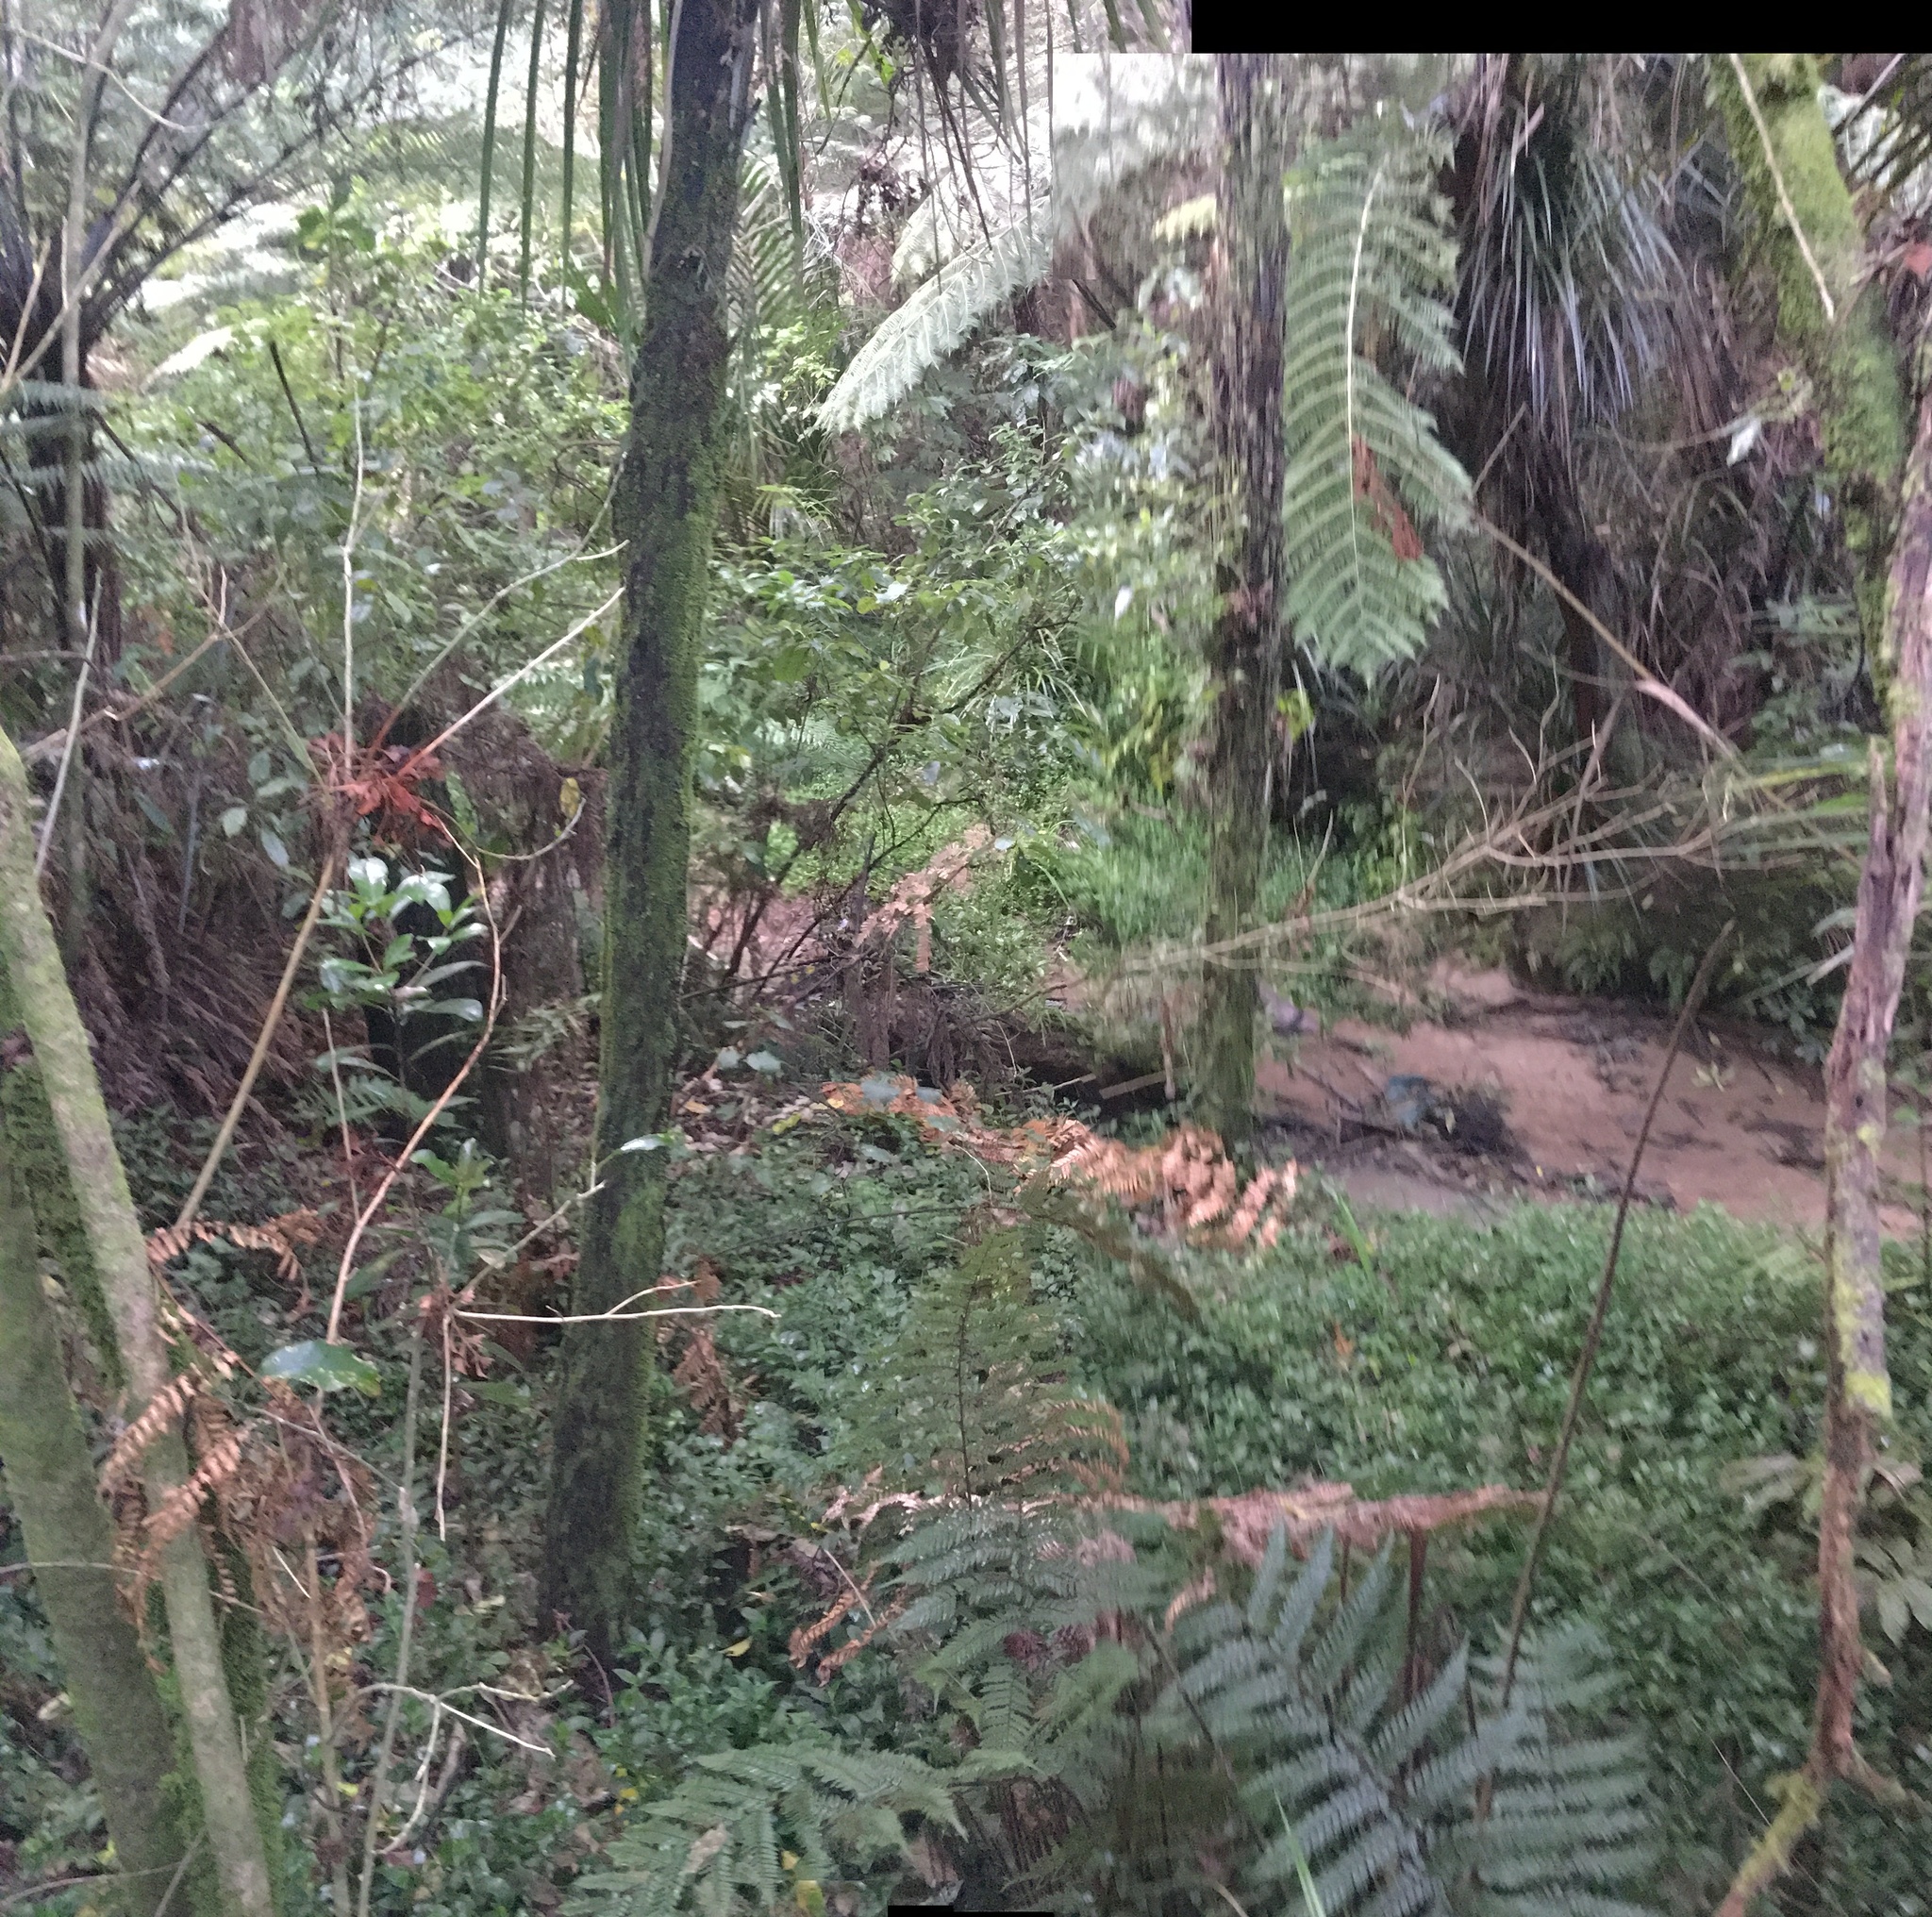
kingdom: Plantae
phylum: Tracheophyta
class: Liliopsida
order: Commelinales
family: Commelinaceae
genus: Tradescantia
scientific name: Tradescantia fluminensis
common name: Wandering-jew
